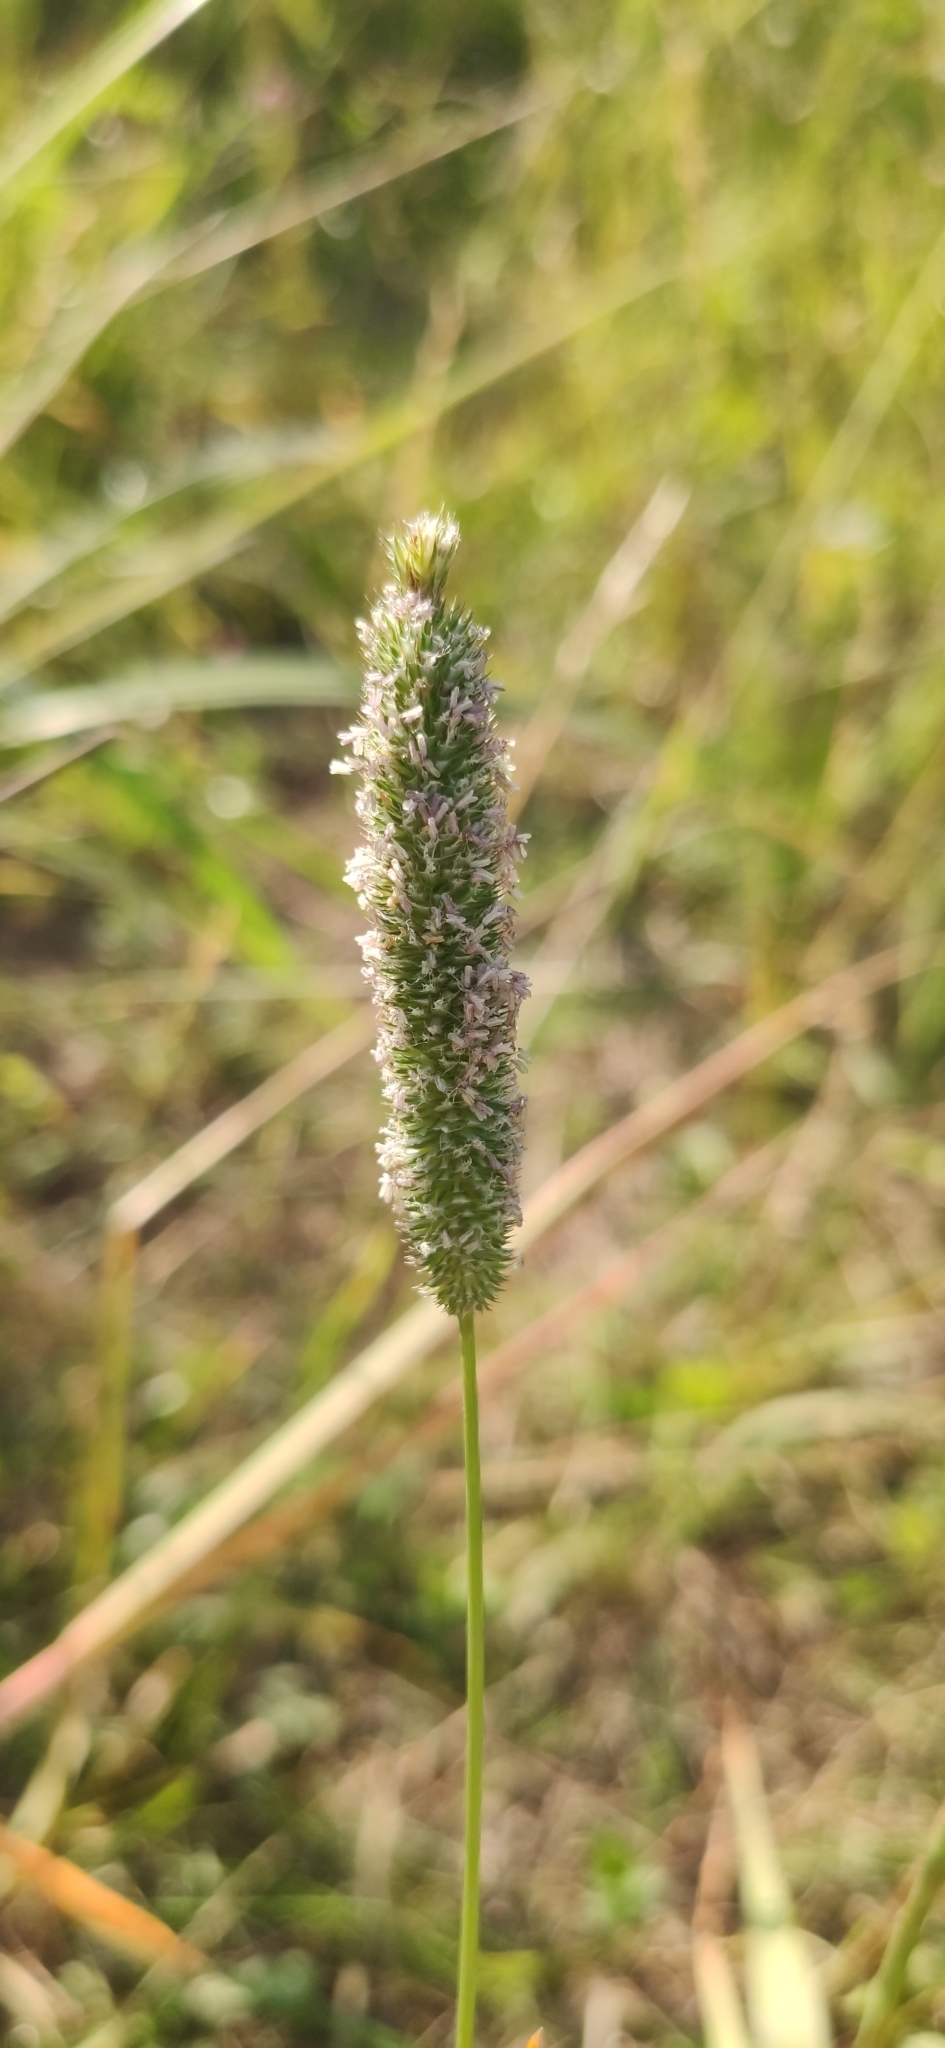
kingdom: Plantae
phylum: Tracheophyta
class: Liliopsida
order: Poales
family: Poaceae
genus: Phleum
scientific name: Phleum pratense
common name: Timothy grass
